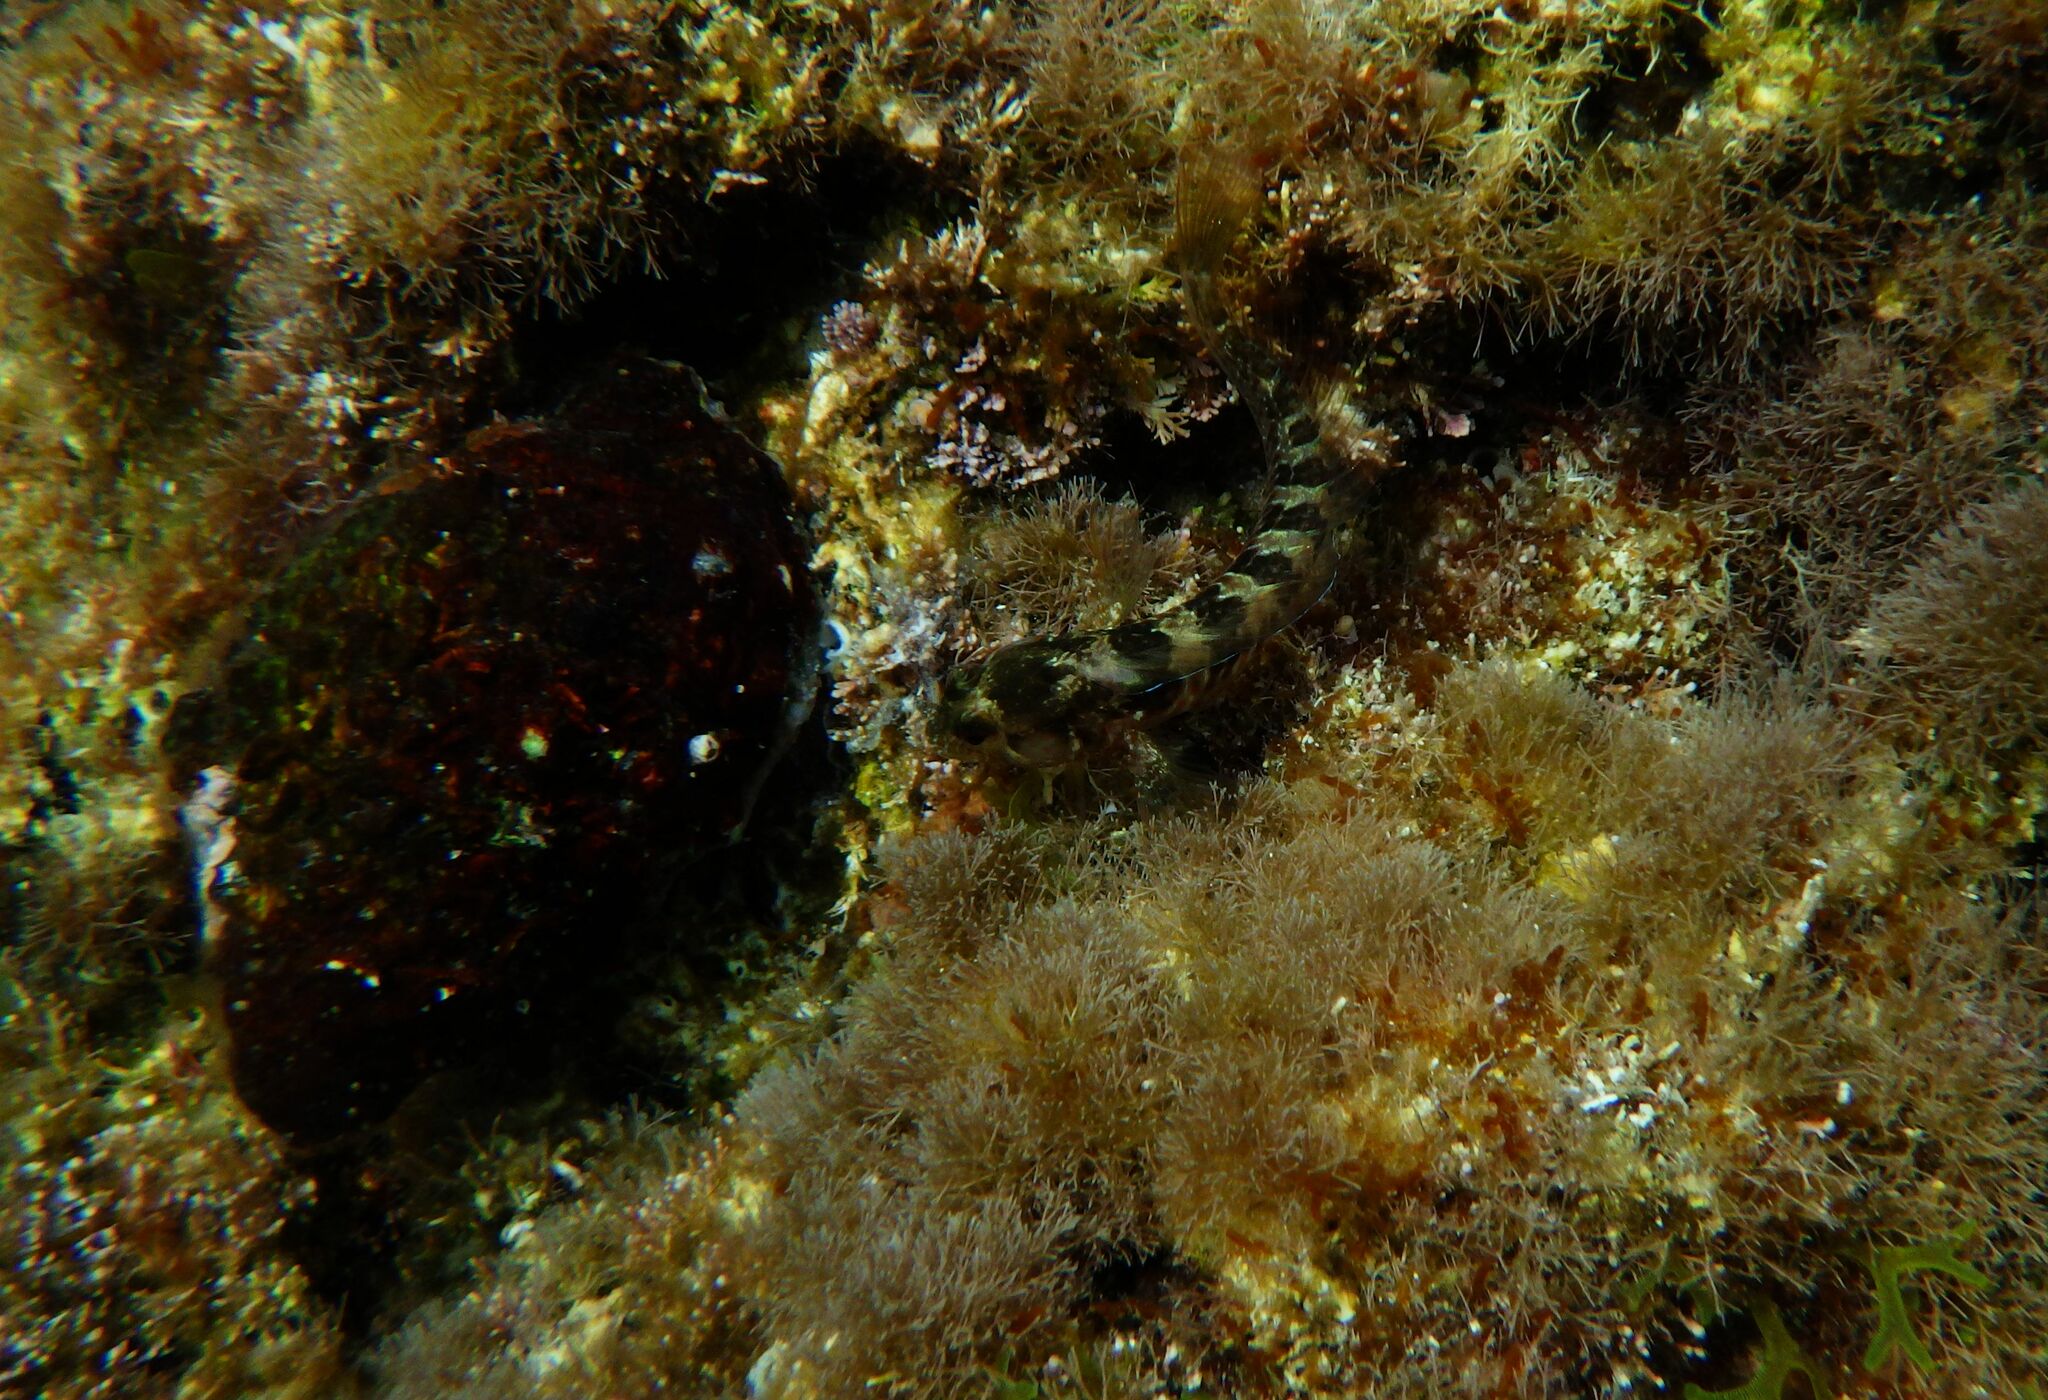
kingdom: Animalia
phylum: Mollusca
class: Gastropoda
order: Neogastropoda
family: Muricidae
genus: Stramonita
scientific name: Stramonita haemastoma
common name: Florida dog winkle
